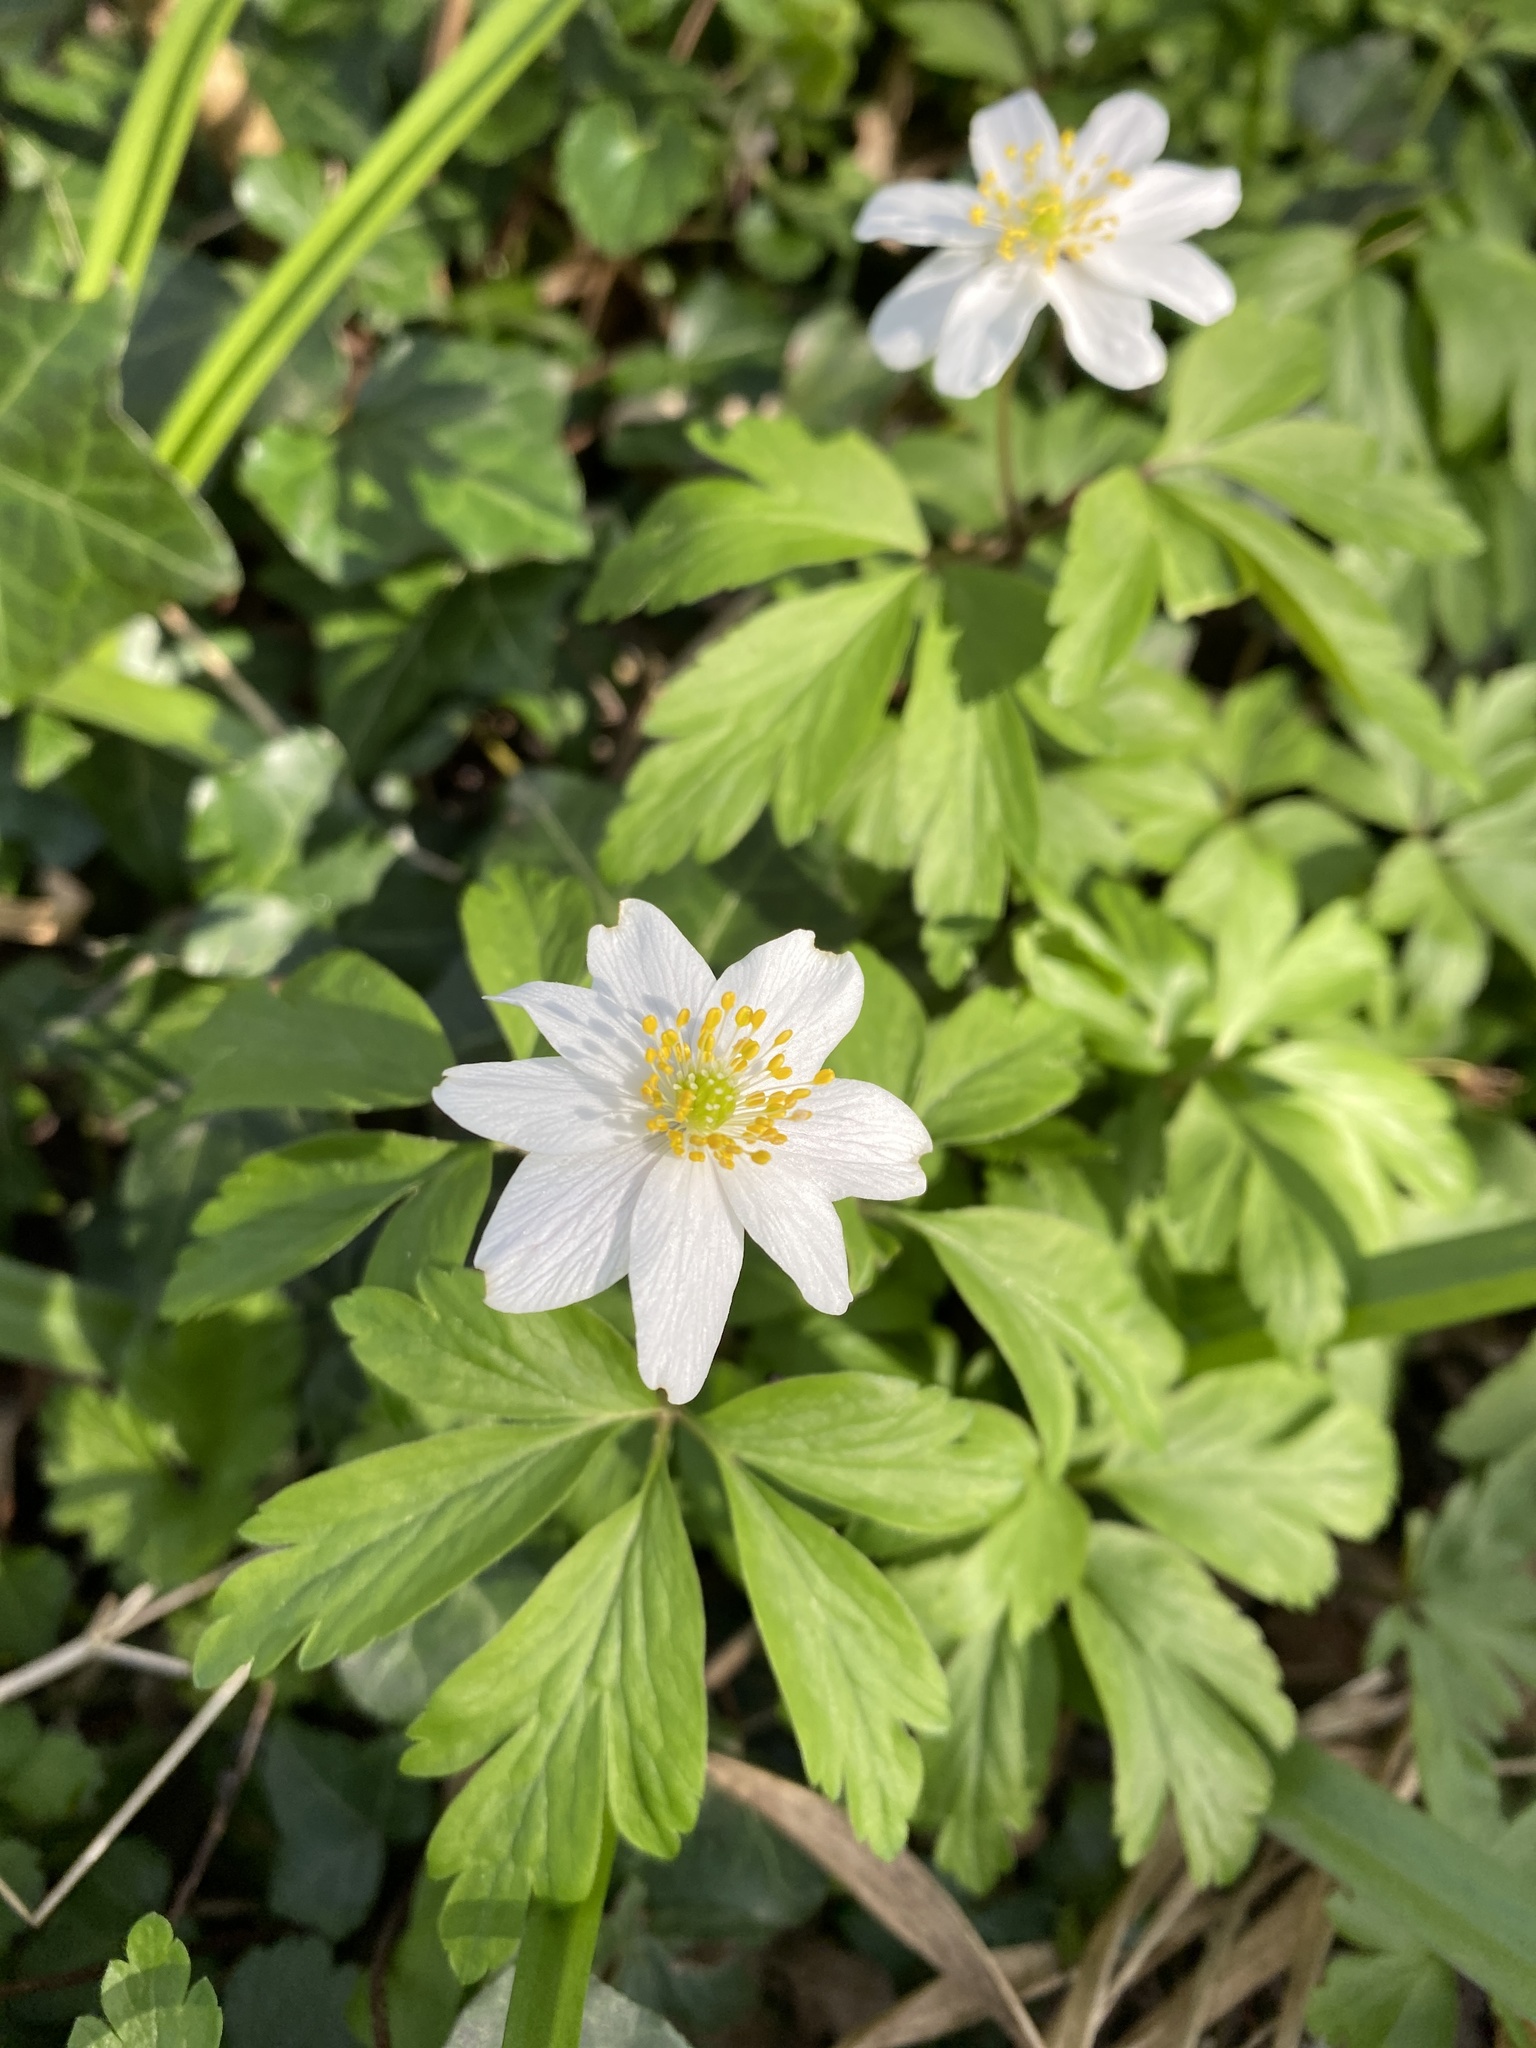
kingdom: Plantae
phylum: Tracheophyta
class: Magnoliopsida
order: Ranunculales
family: Ranunculaceae
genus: Anemone
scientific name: Anemone nemorosa
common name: Wood anemone
